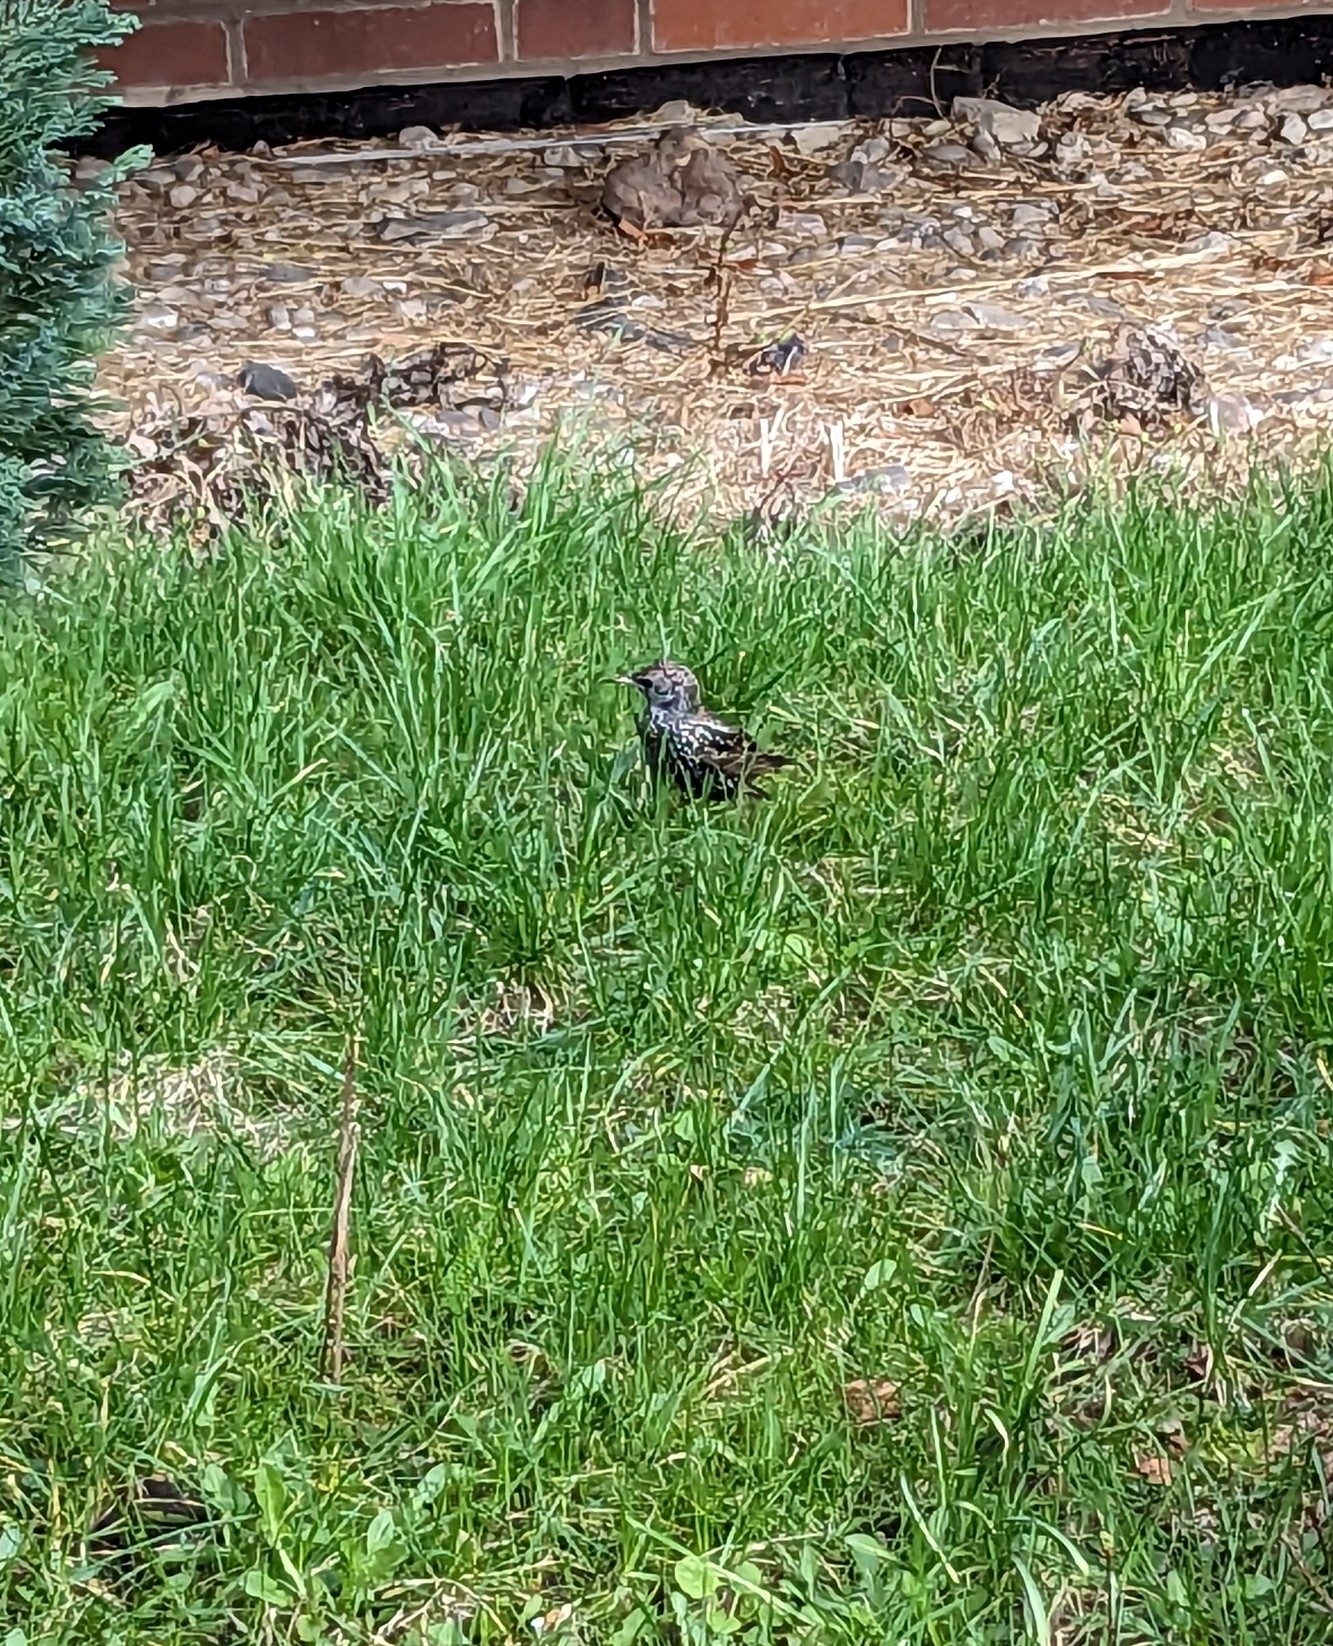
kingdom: Animalia
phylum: Chordata
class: Aves
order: Passeriformes
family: Sturnidae
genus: Sturnus
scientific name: Sturnus vulgaris
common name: Common starling
